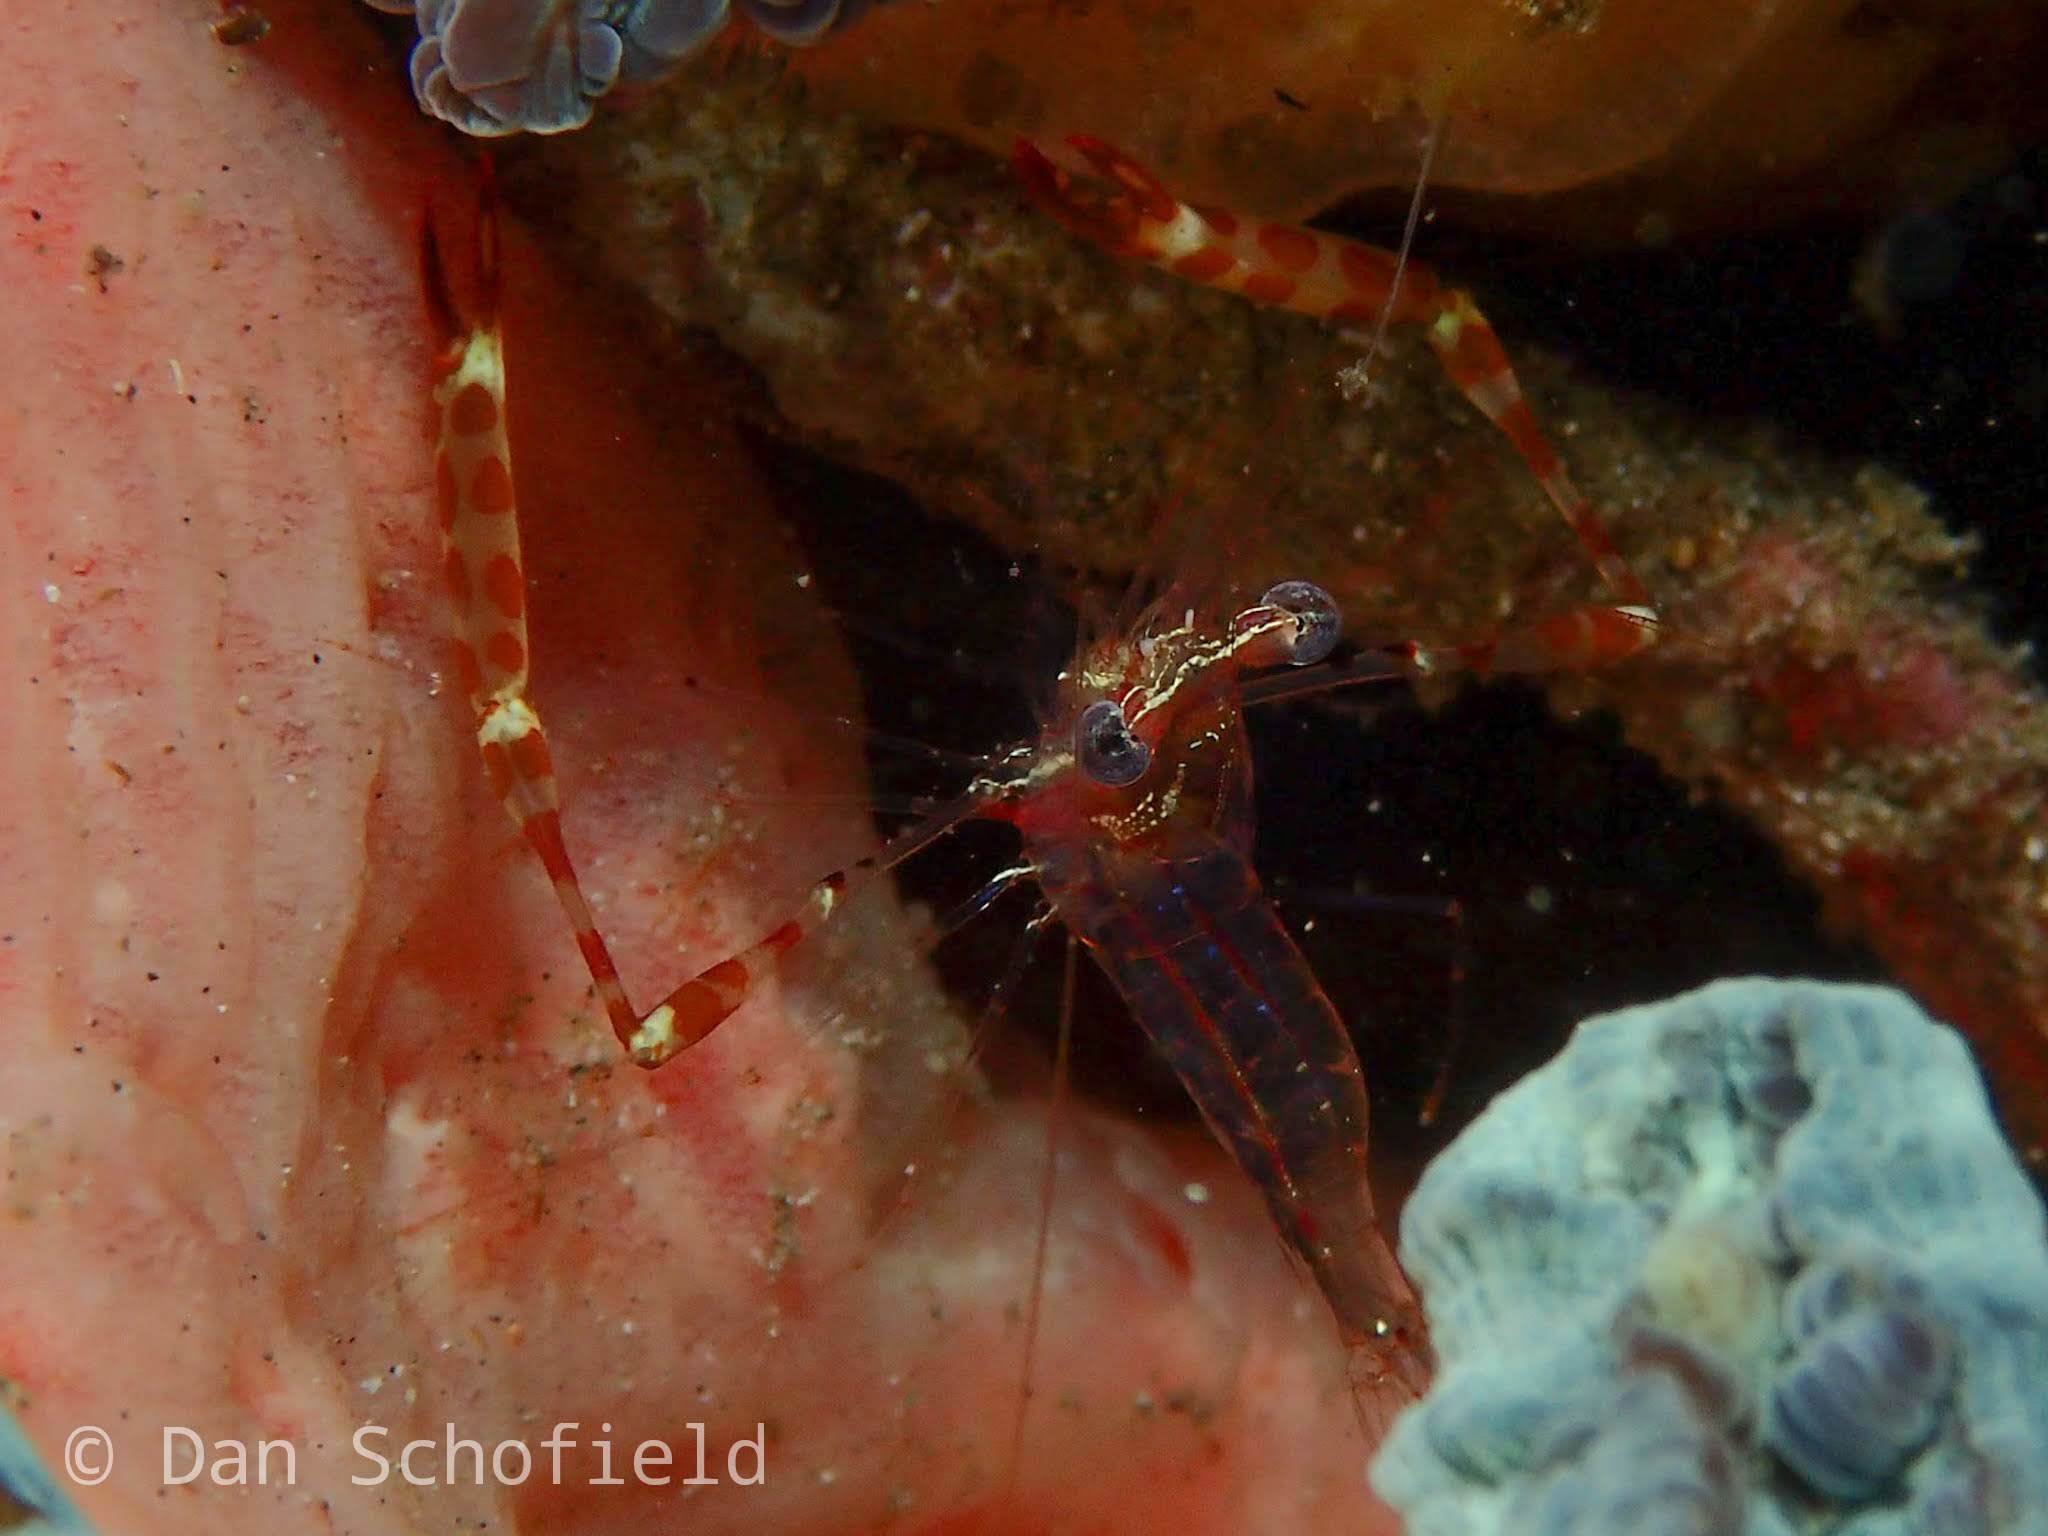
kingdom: Animalia
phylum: Arthropoda
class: Malacostraca
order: Decapoda
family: Palaemonidae
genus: Periclimenes
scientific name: Periclimenes ischiospinosus
